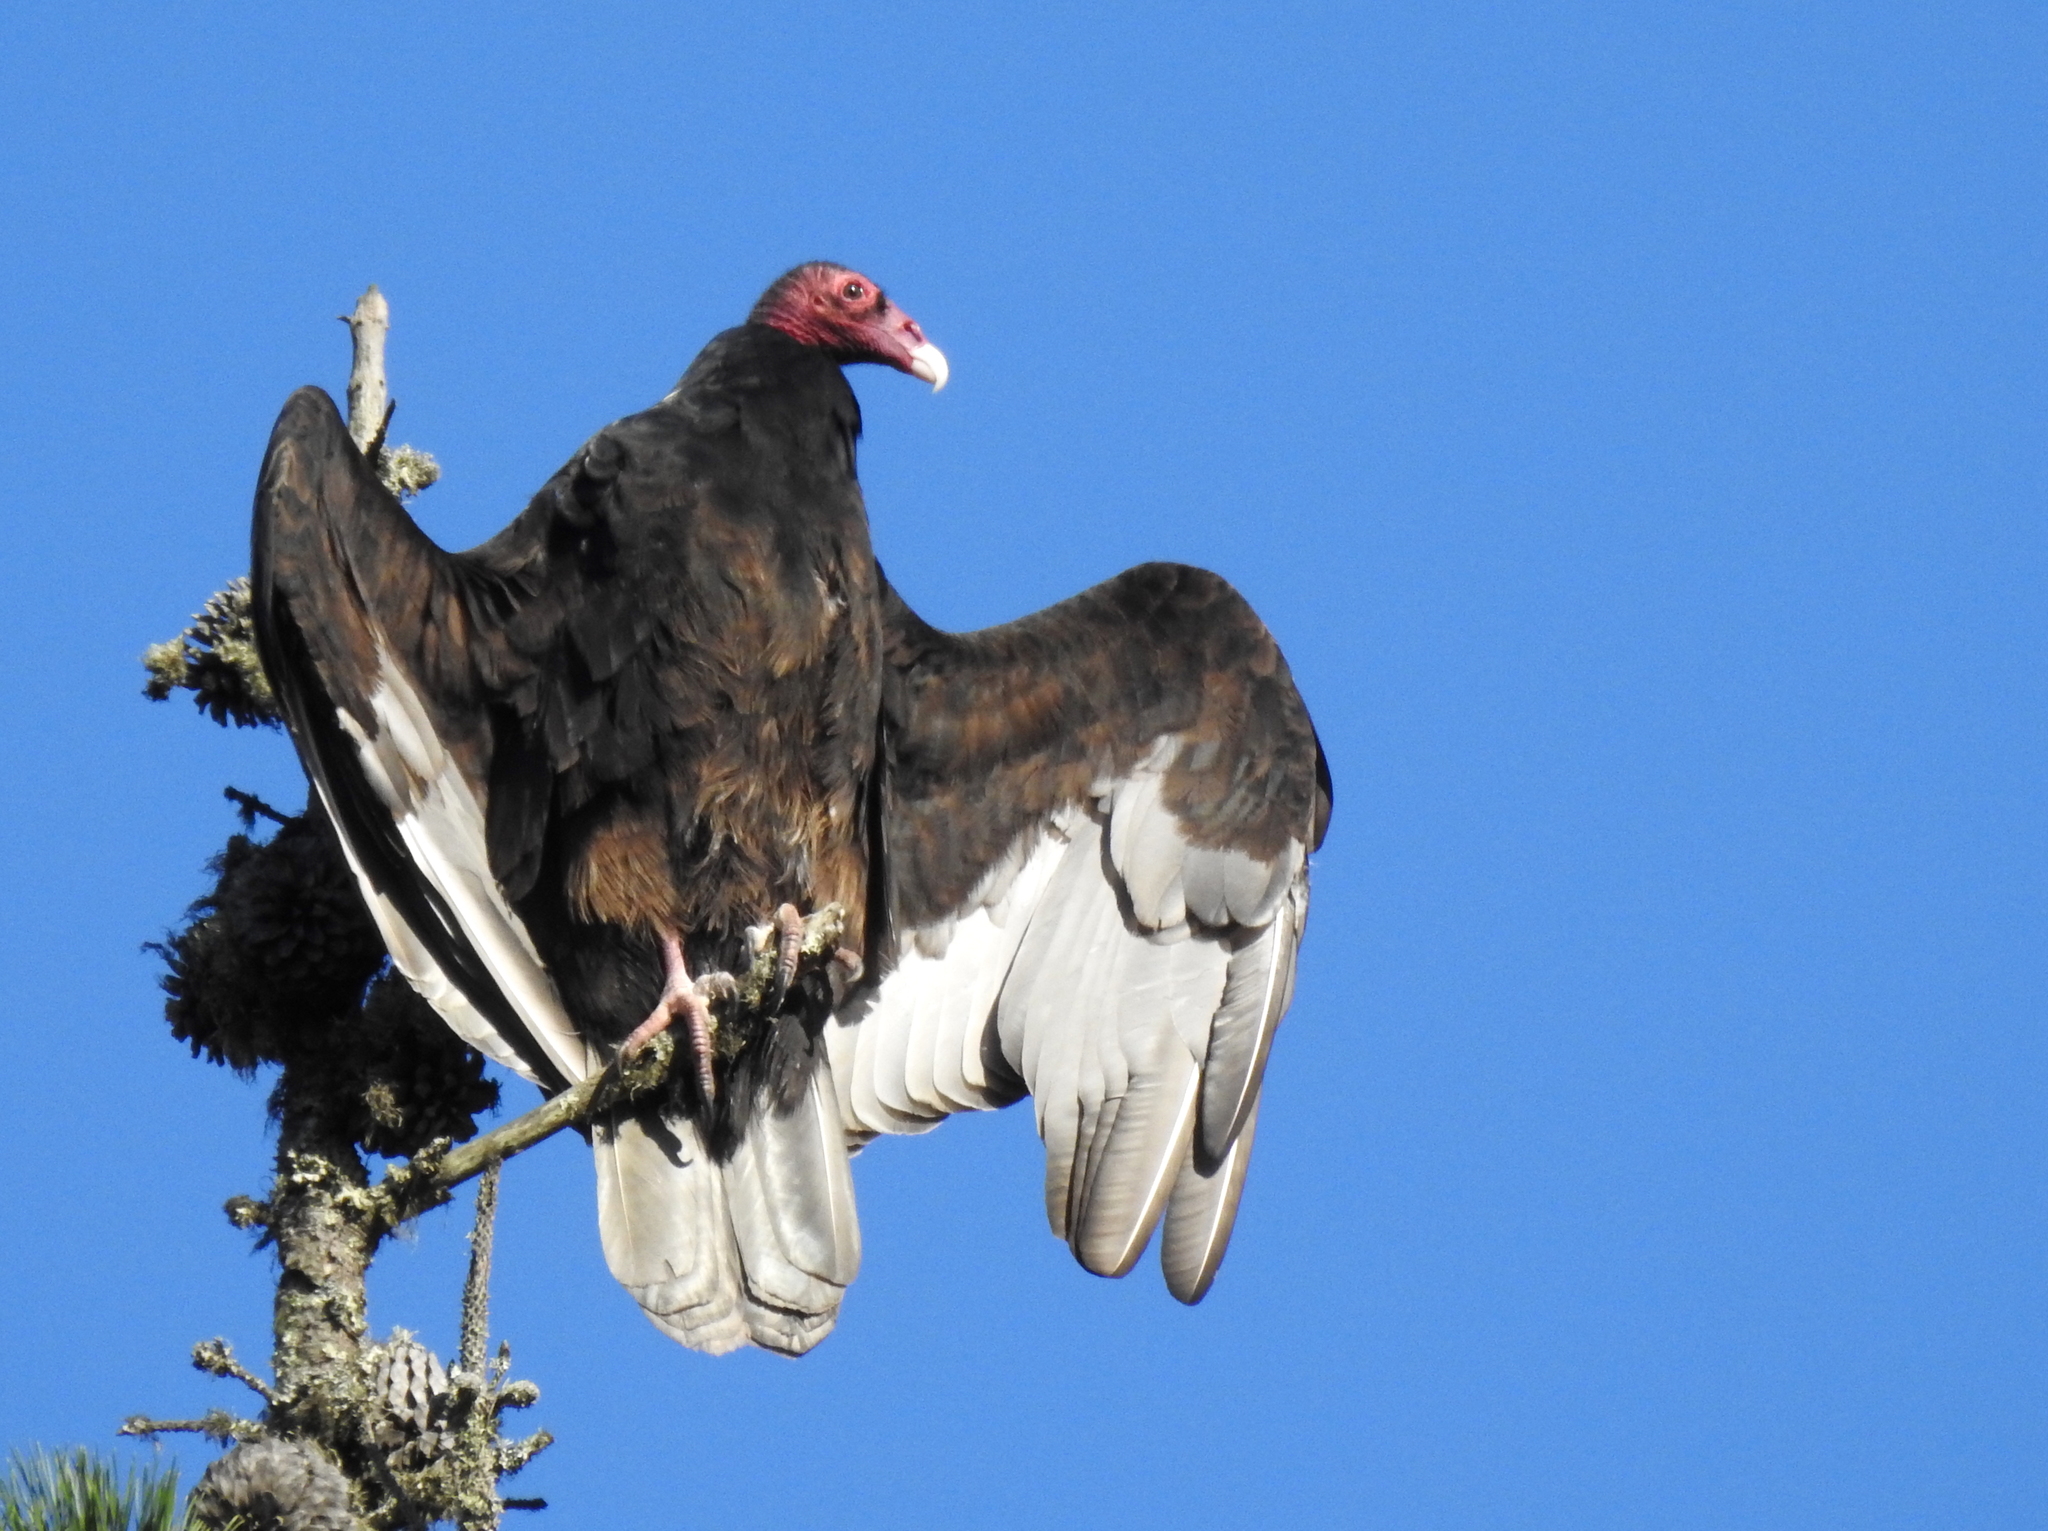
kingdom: Animalia
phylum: Chordata
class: Aves
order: Accipitriformes
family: Cathartidae
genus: Cathartes
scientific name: Cathartes aura
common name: Turkey vulture
